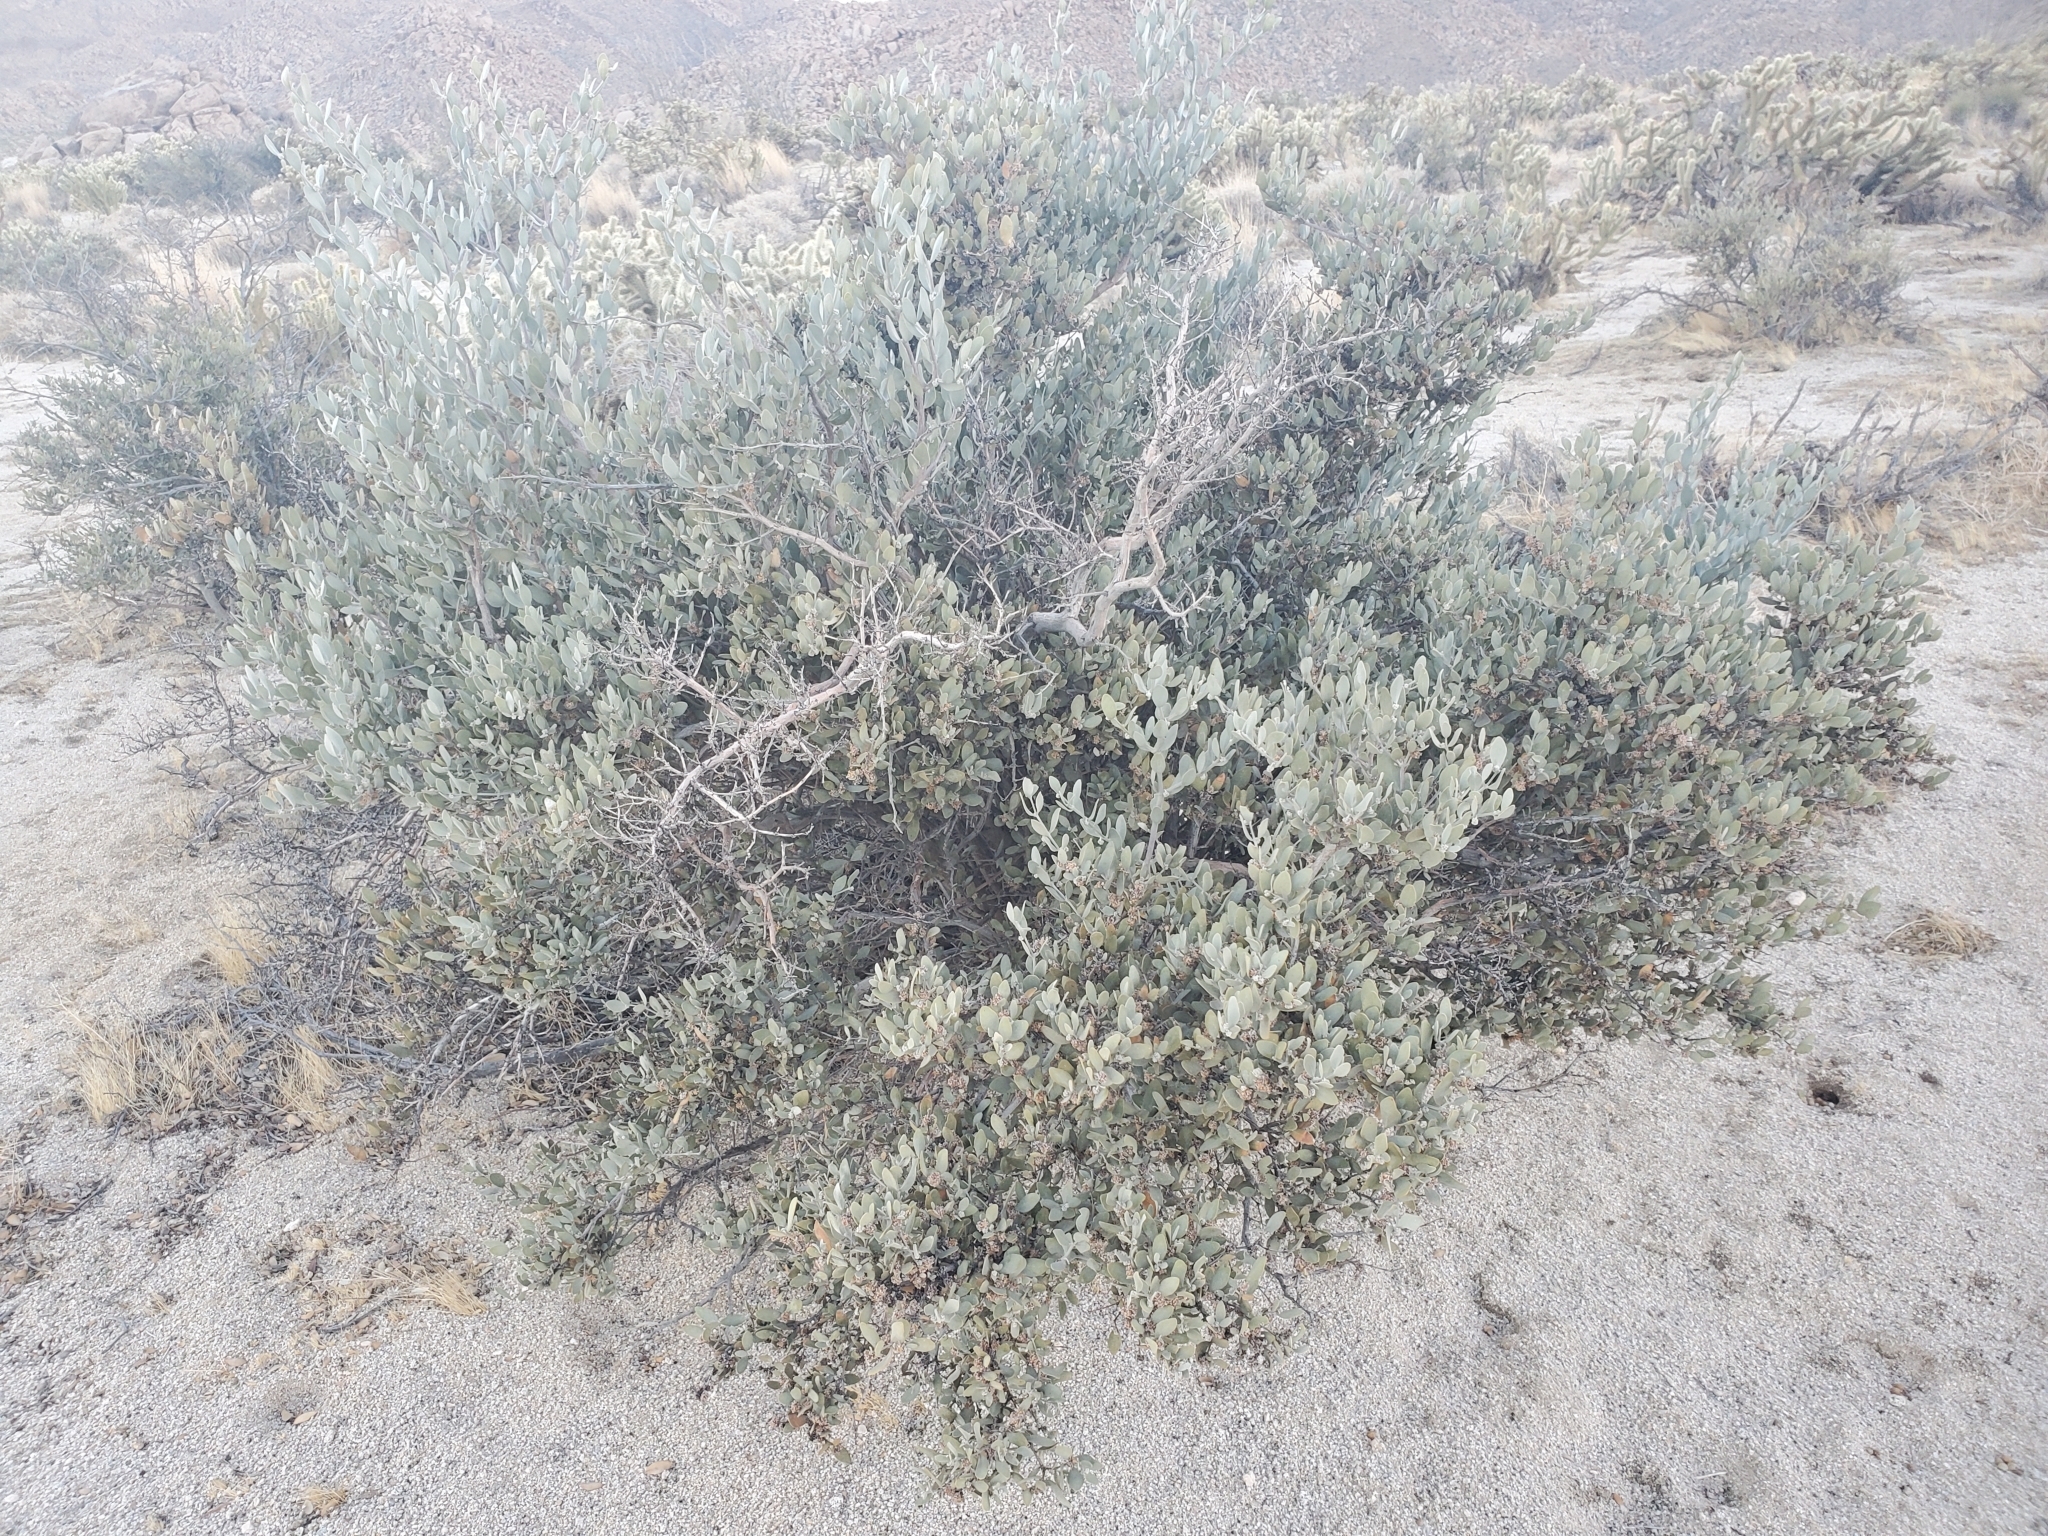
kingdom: Plantae
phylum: Tracheophyta
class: Magnoliopsida
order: Caryophyllales
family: Simmondsiaceae
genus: Simmondsia
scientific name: Simmondsia chinensis
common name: Jojoba
